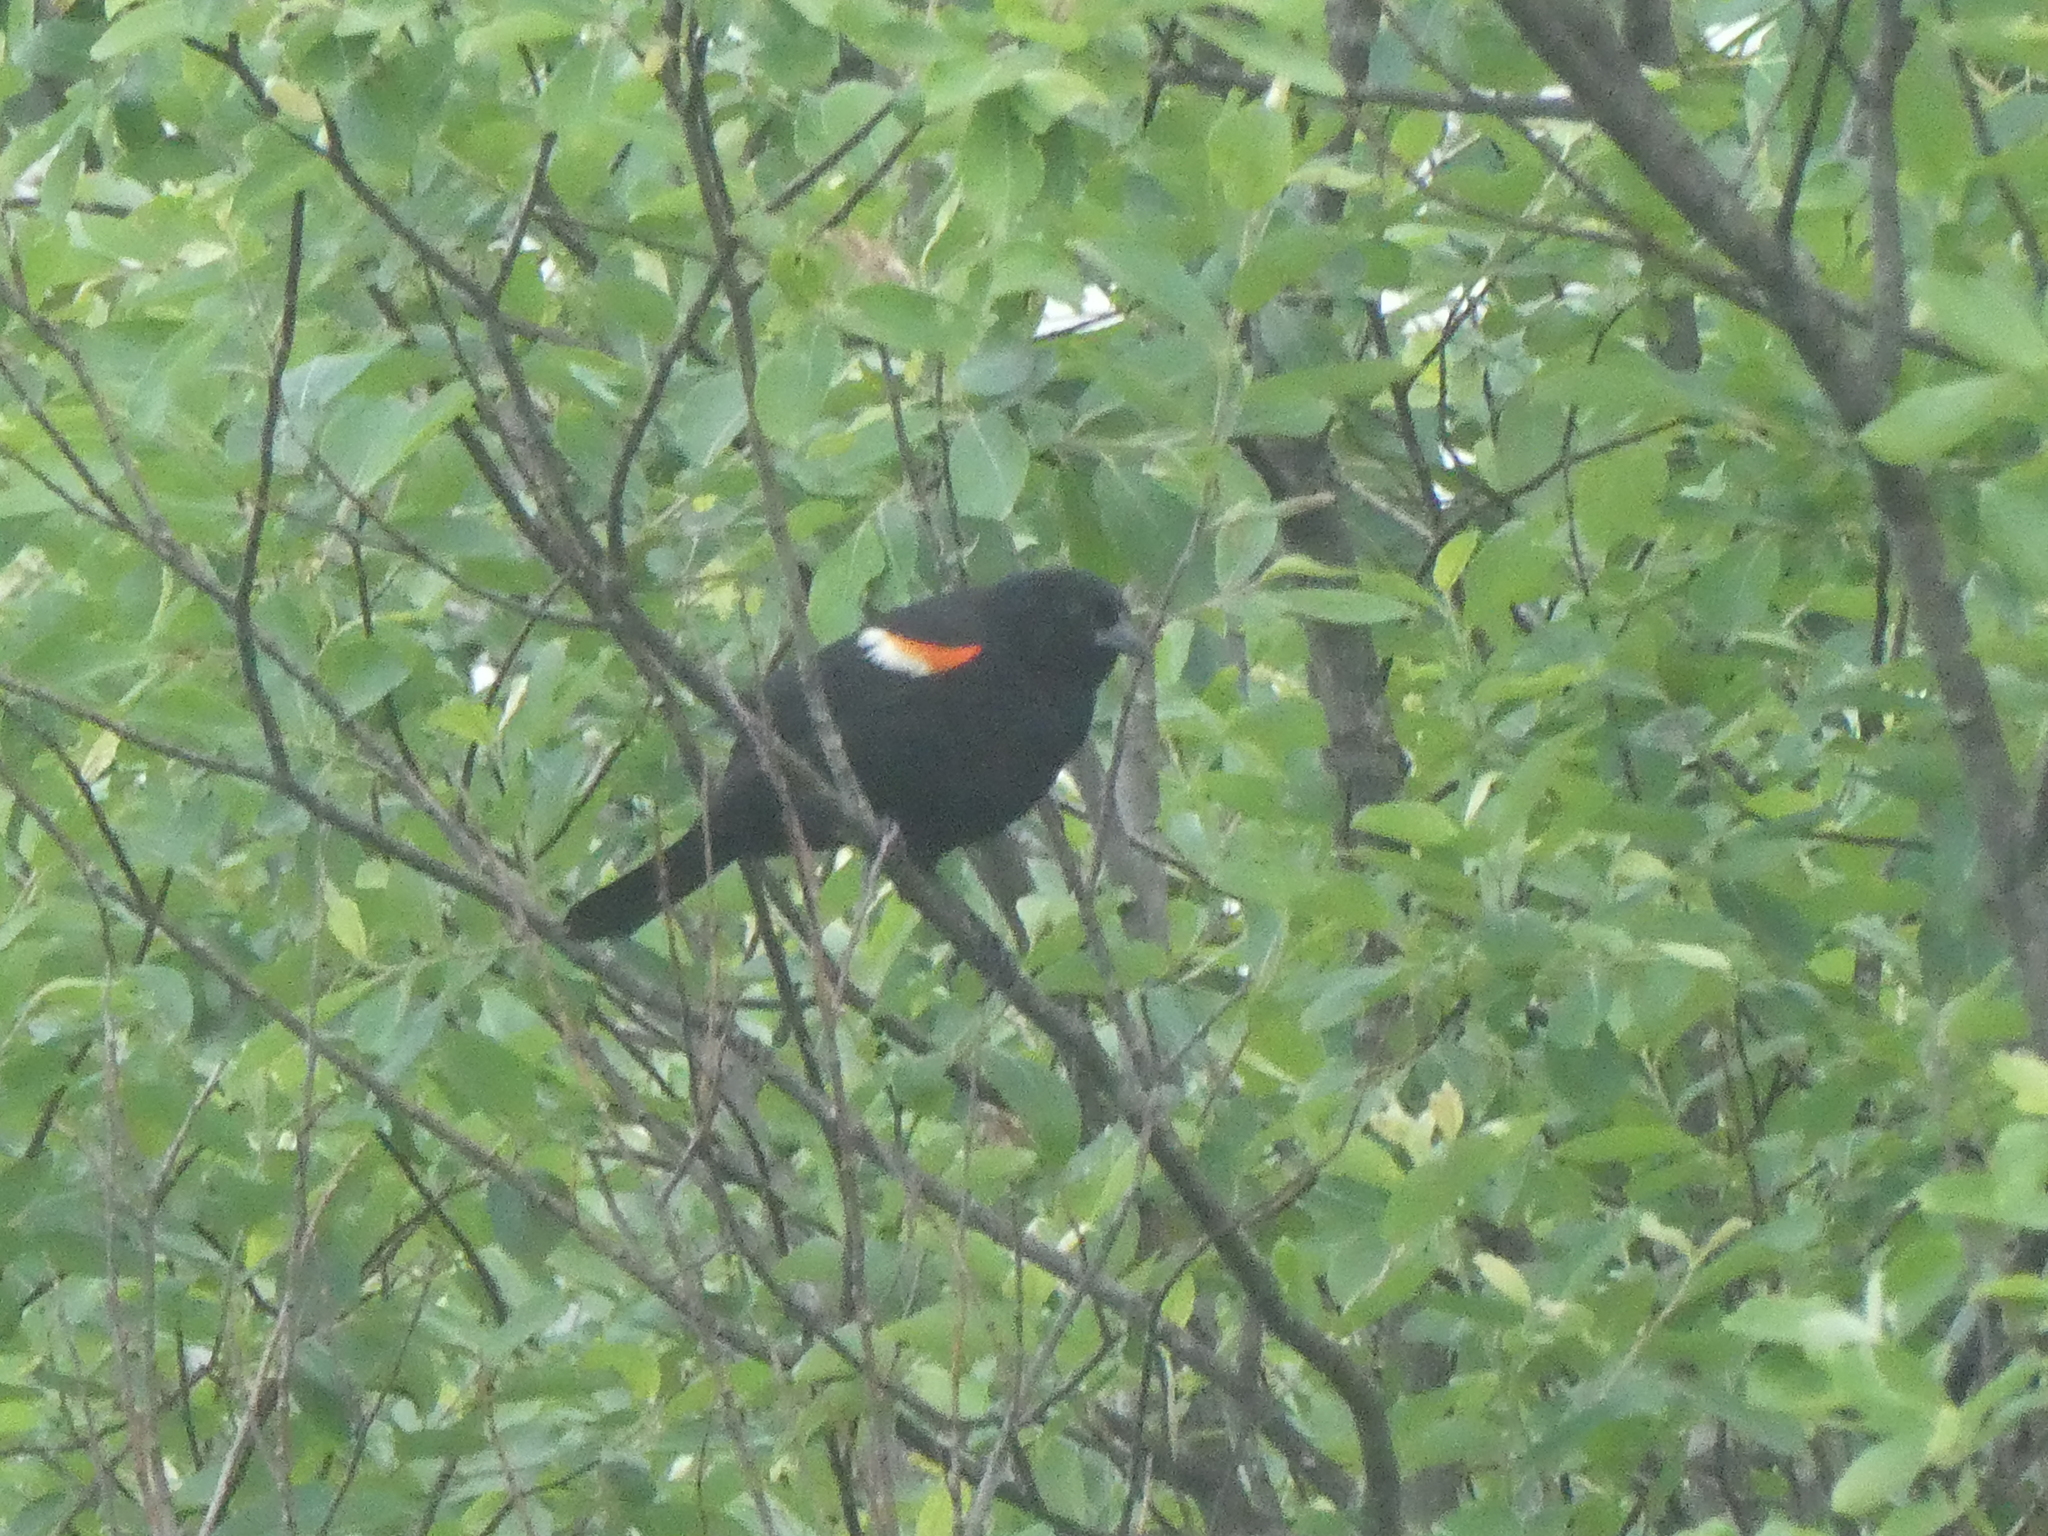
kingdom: Animalia
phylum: Chordata
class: Aves
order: Passeriformes
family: Icteridae
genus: Agelaius
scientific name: Agelaius phoeniceus
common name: Red-winged blackbird
